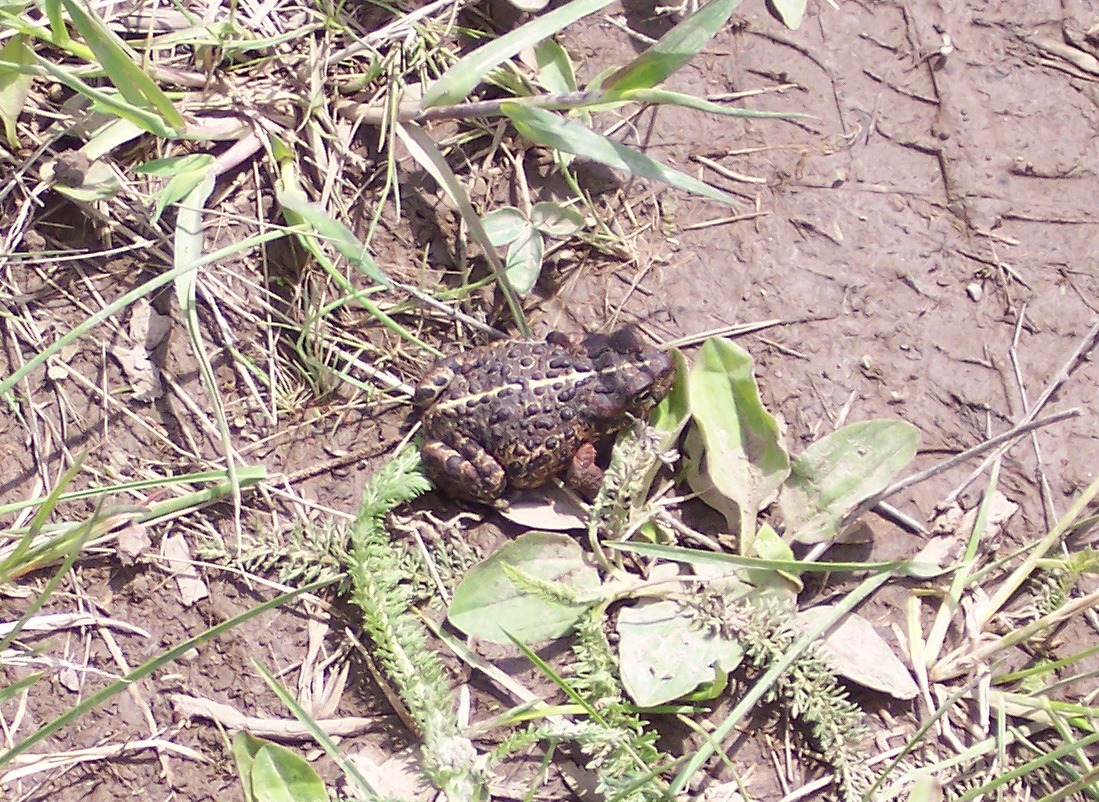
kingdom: Animalia
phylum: Chordata
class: Amphibia
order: Anura
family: Bufonidae
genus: Anaxyrus
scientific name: Anaxyrus boreas
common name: Western toad
